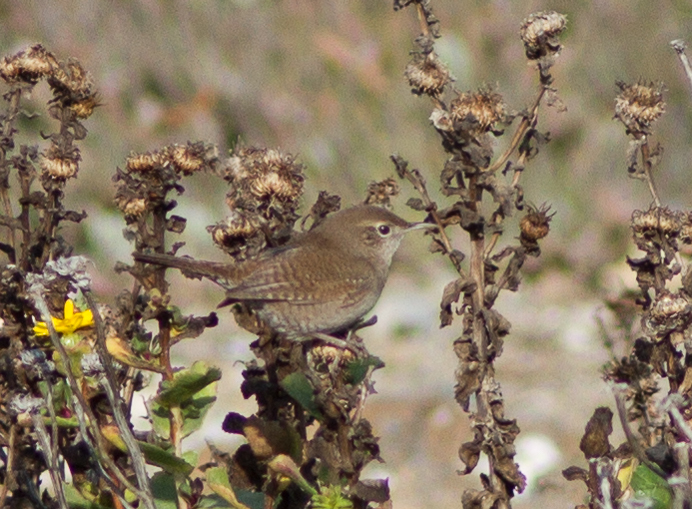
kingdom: Animalia
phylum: Chordata
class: Aves
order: Passeriformes
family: Troglodytidae
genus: Troglodytes
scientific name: Troglodytes aedon
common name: House wren
